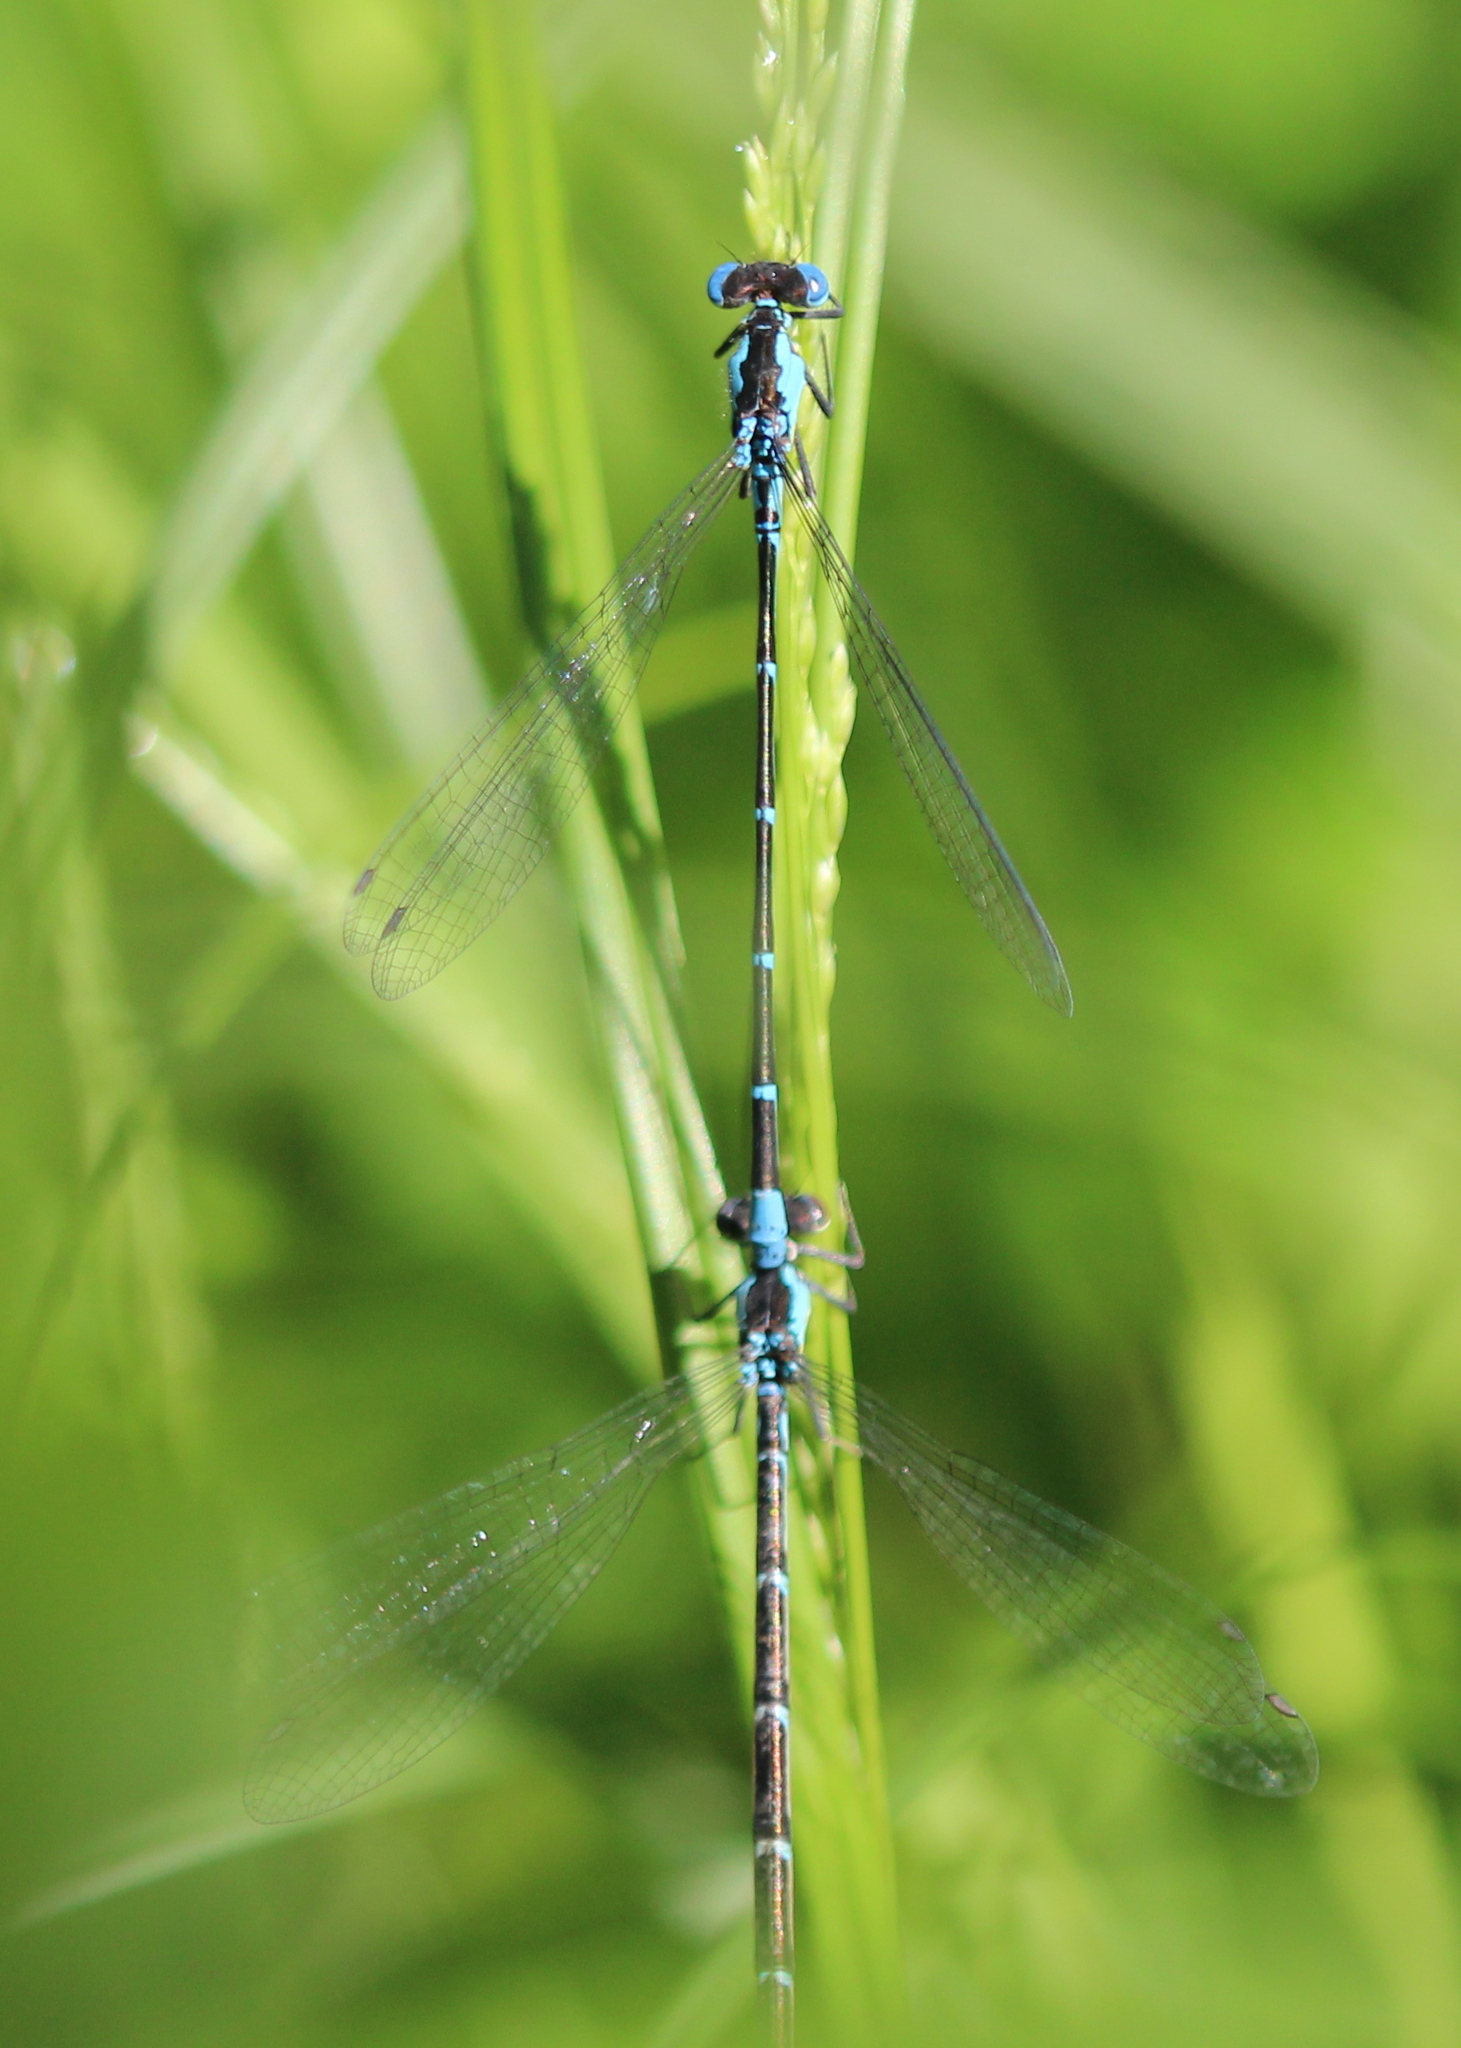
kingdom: Animalia
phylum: Arthropoda
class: Insecta
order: Odonata
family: Coenagrionidae
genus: Chromagrion
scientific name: Chromagrion conditum
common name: Aurora damsel
